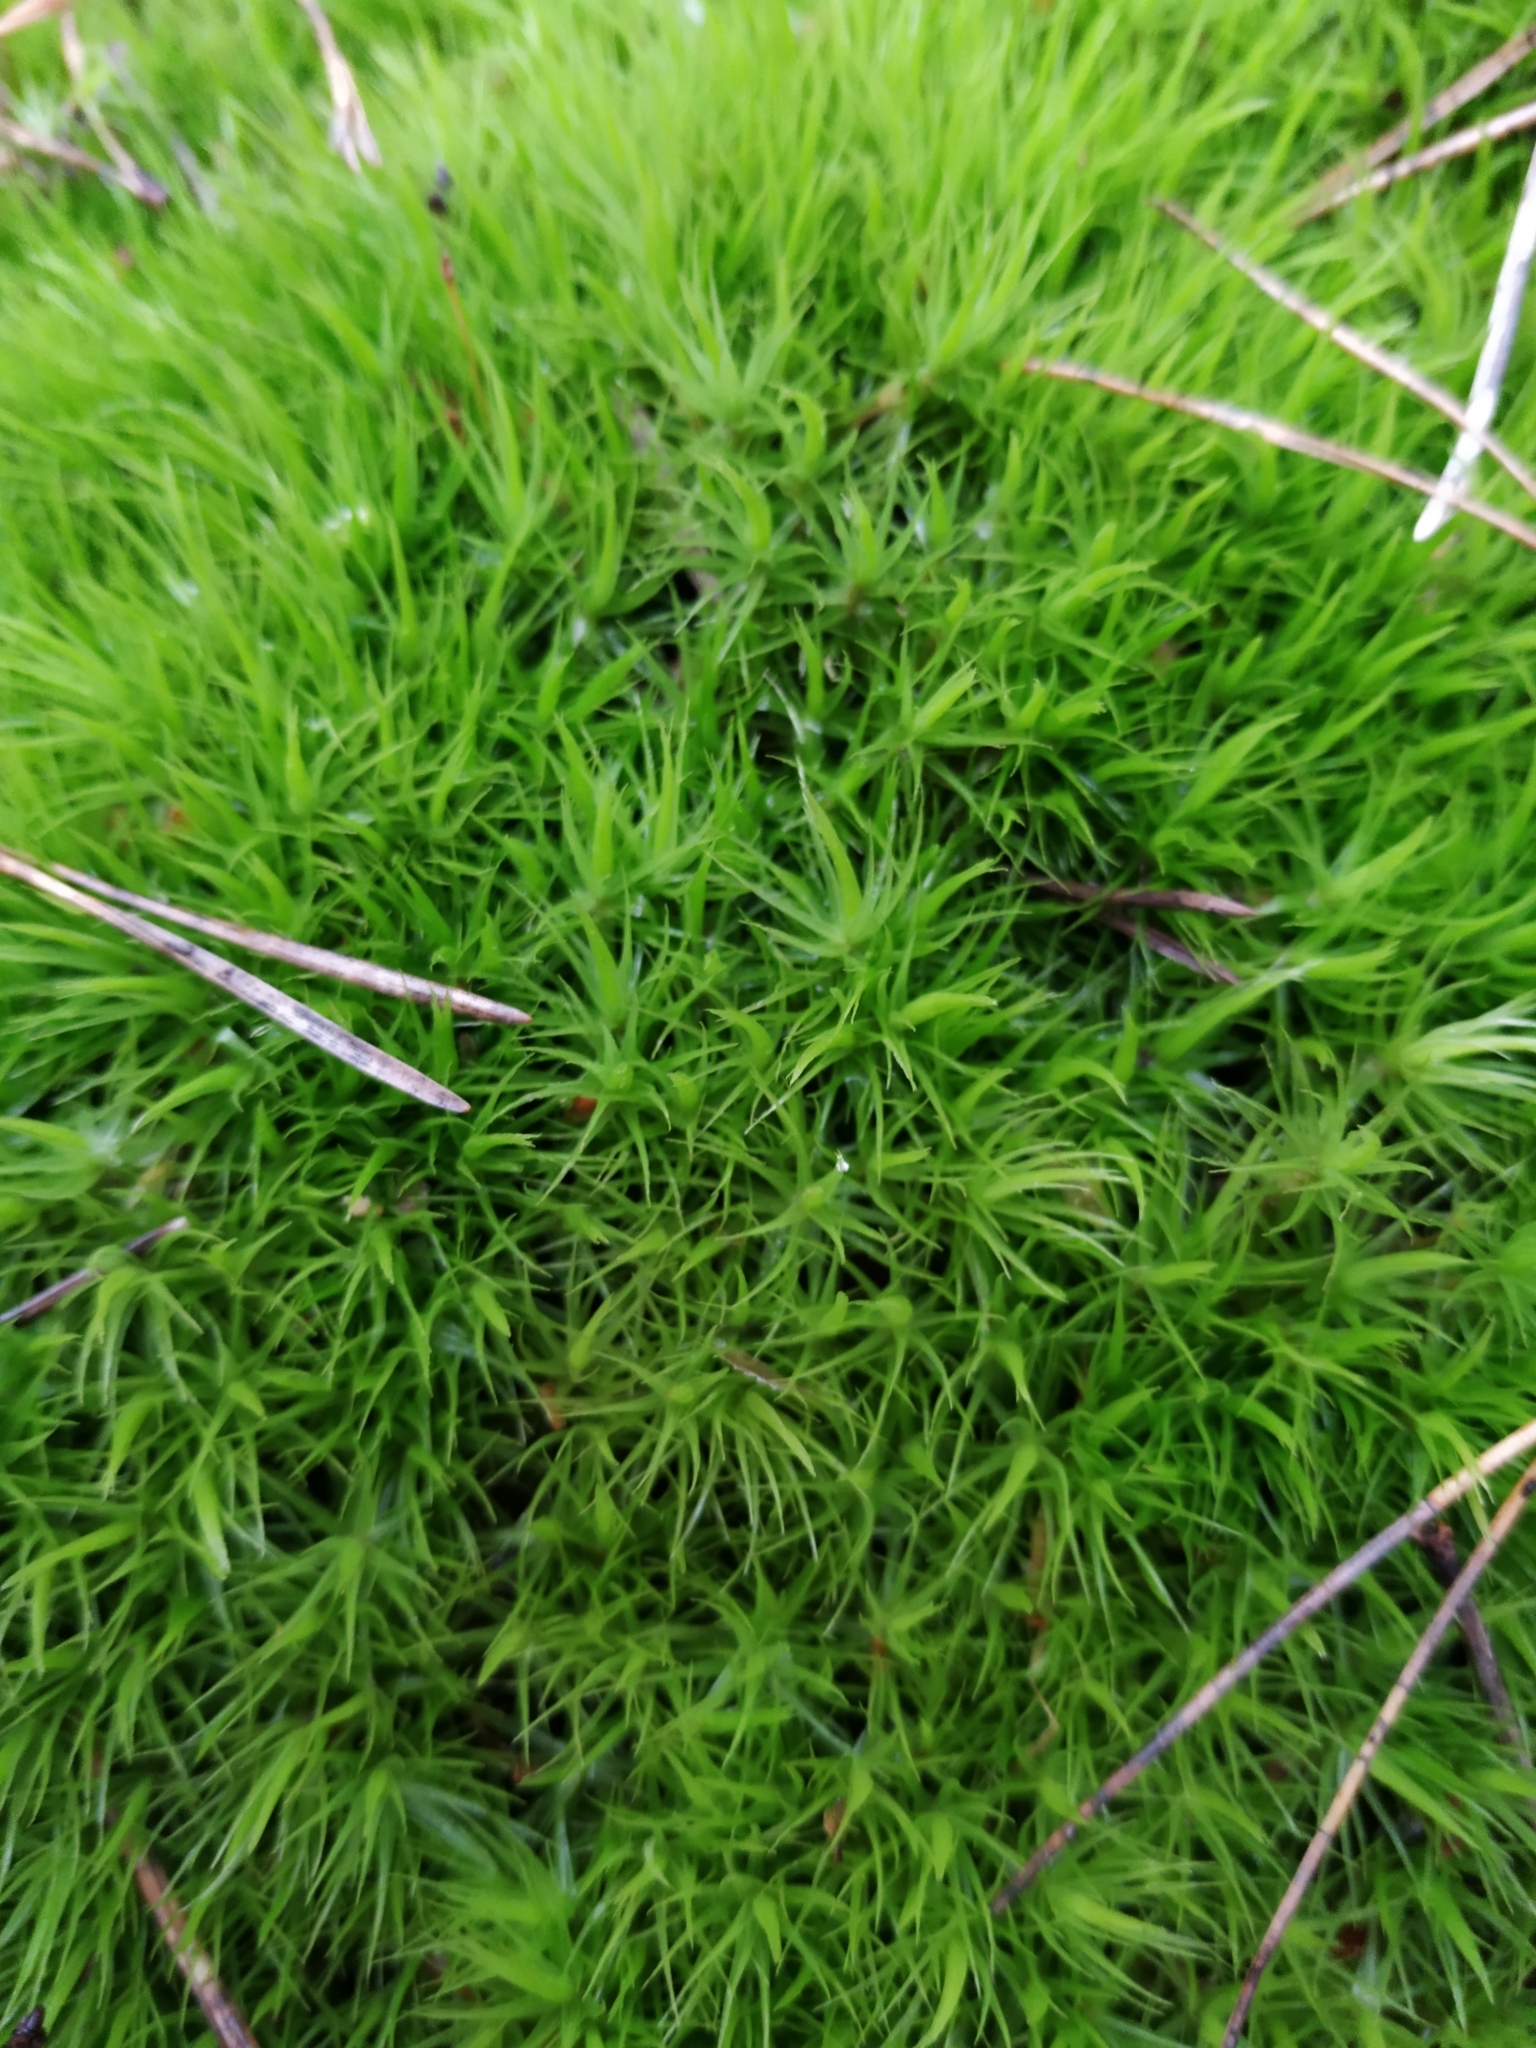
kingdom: Plantae
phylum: Bryophyta
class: Bryopsida
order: Dicranales
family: Dicranaceae
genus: Dicranum
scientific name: Dicranum scoparium
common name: Broom fork-moss
